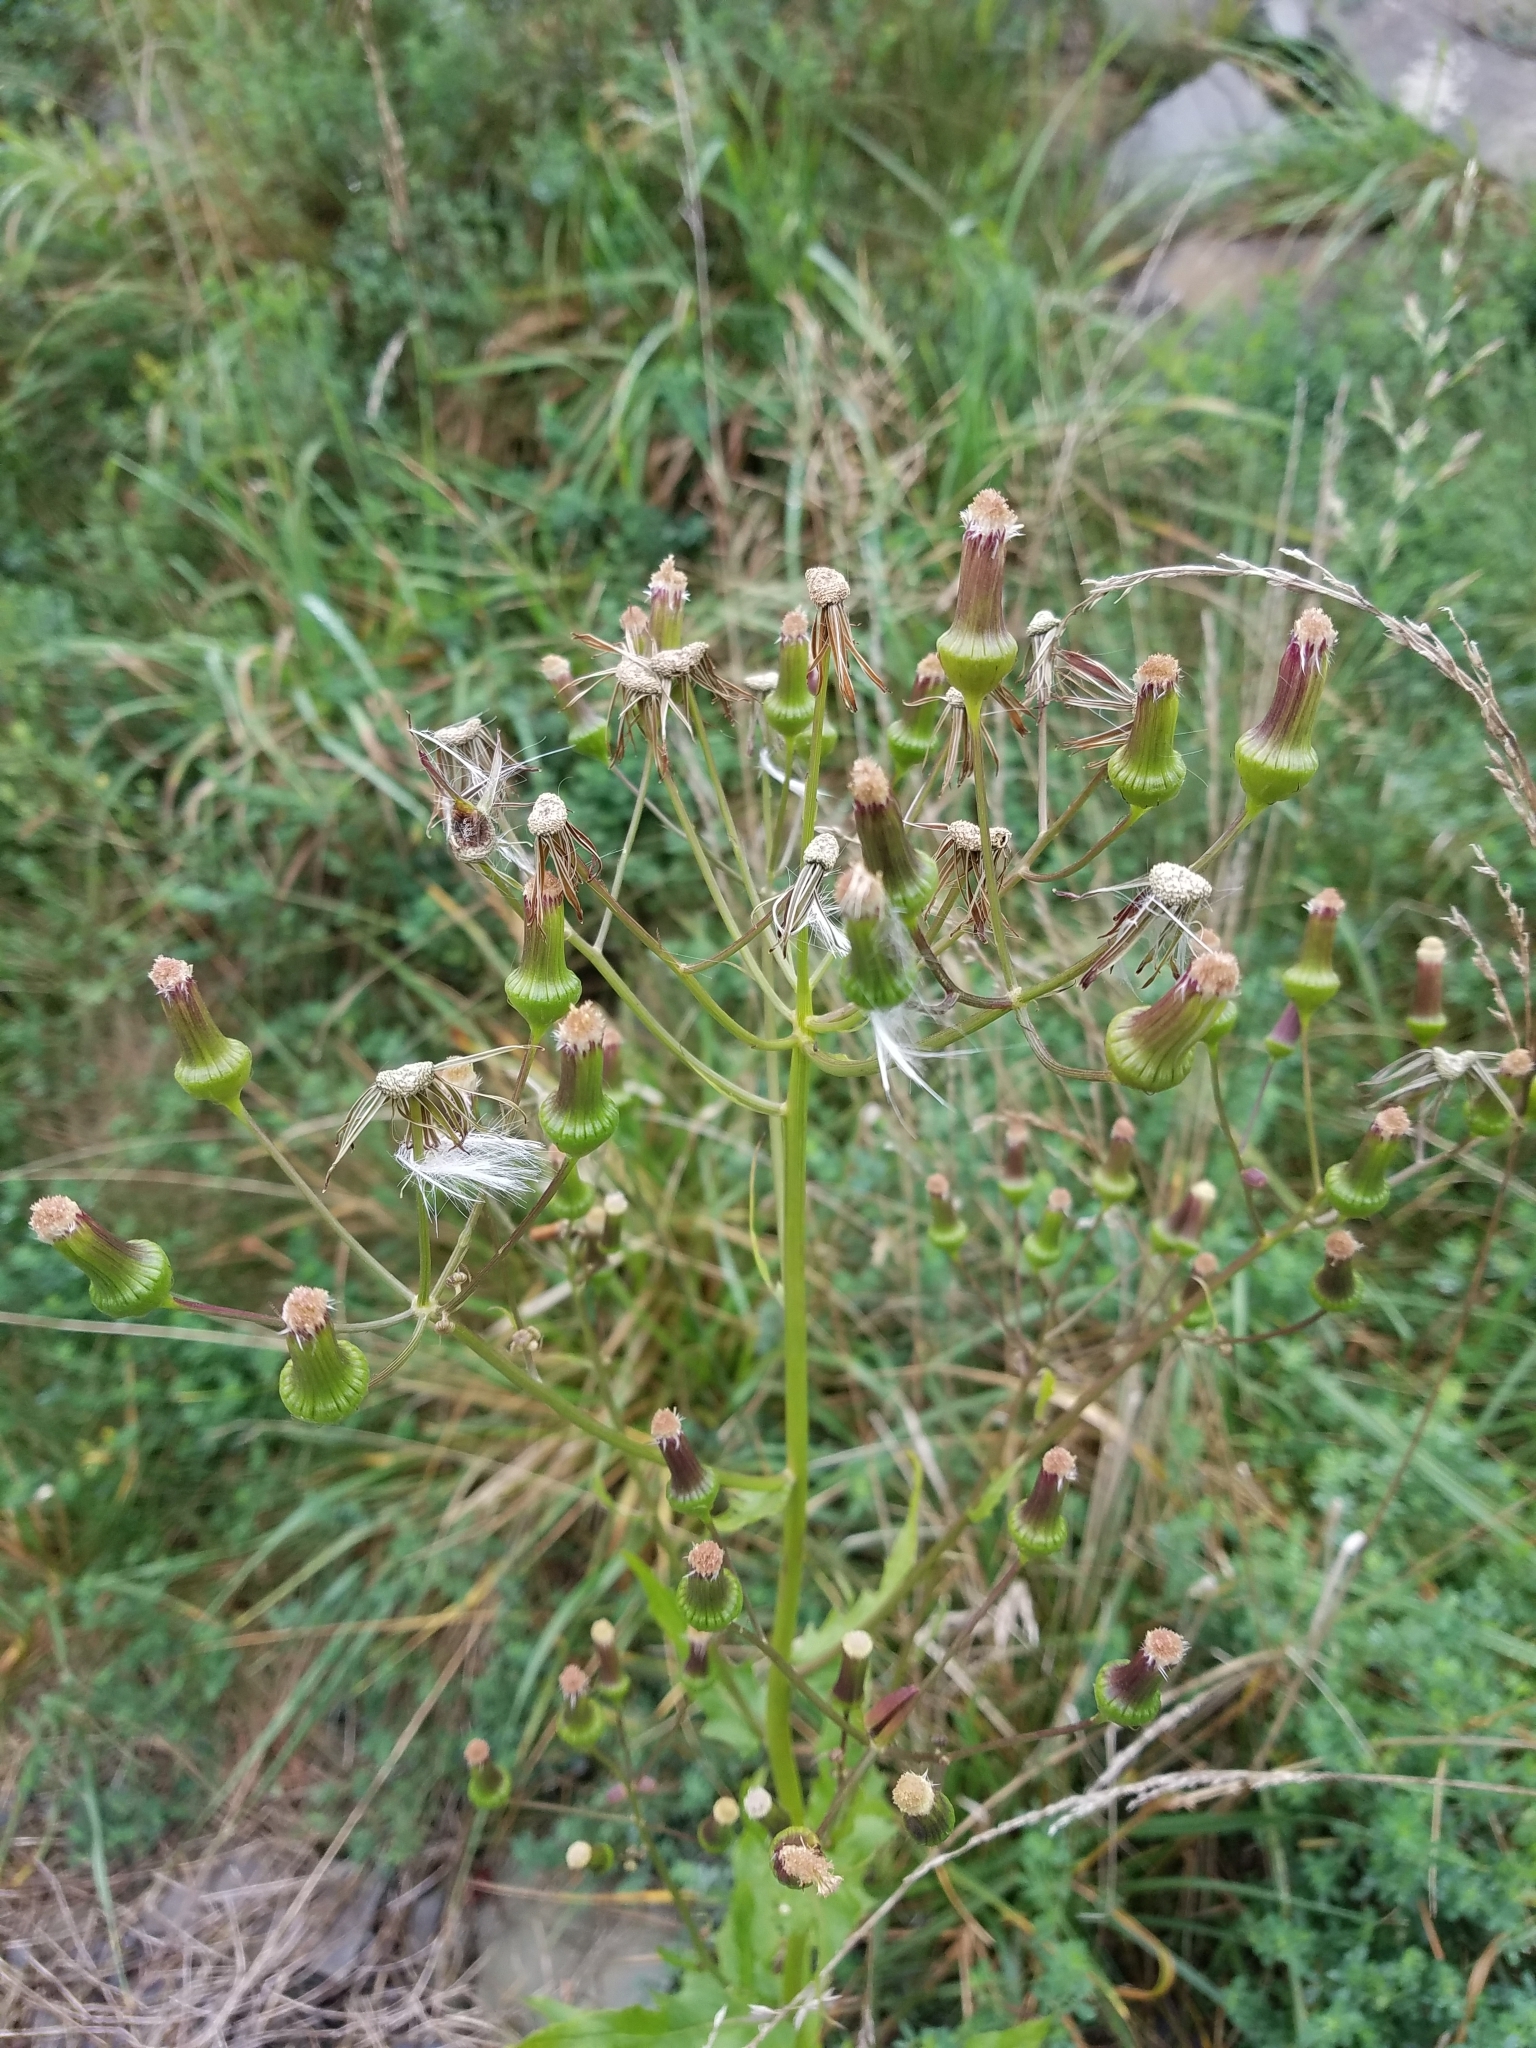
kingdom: Plantae
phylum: Tracheophyta
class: Magnoliopsida
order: Asterales
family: Asteraceae
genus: Erechtites
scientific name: Erechtites hieraciifolius
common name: American burnweed
